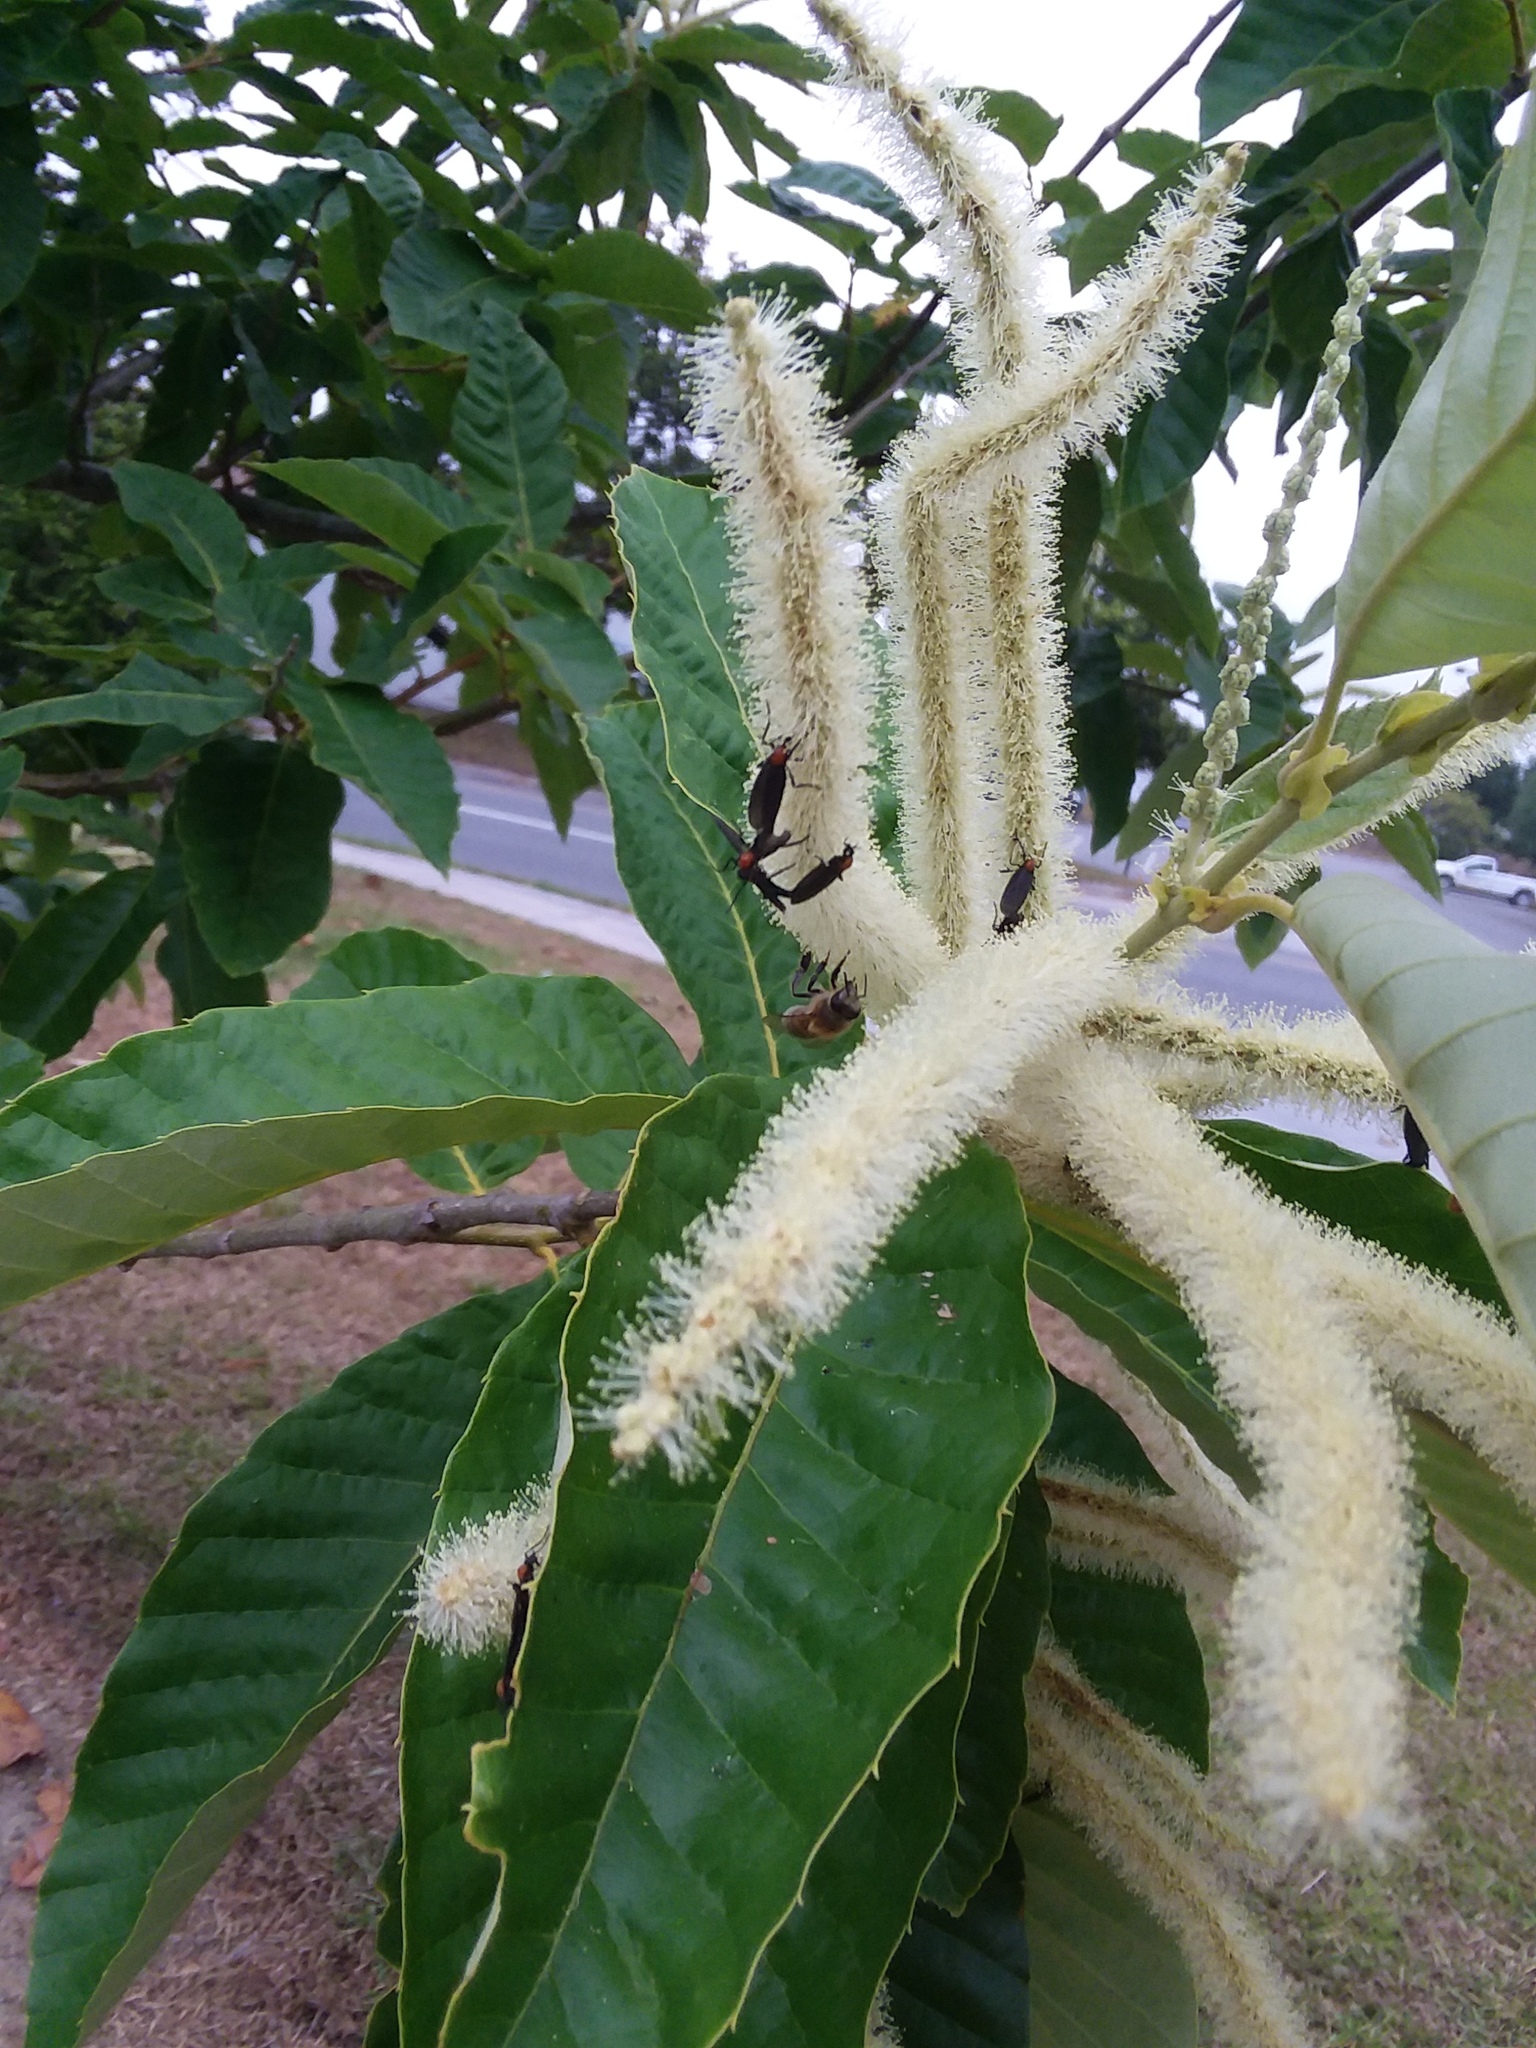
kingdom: Animalia
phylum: Arthropoda
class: Insecta
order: Diptera
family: Bibionidae
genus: Plecia
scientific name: Plecia nearctica
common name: March fly
